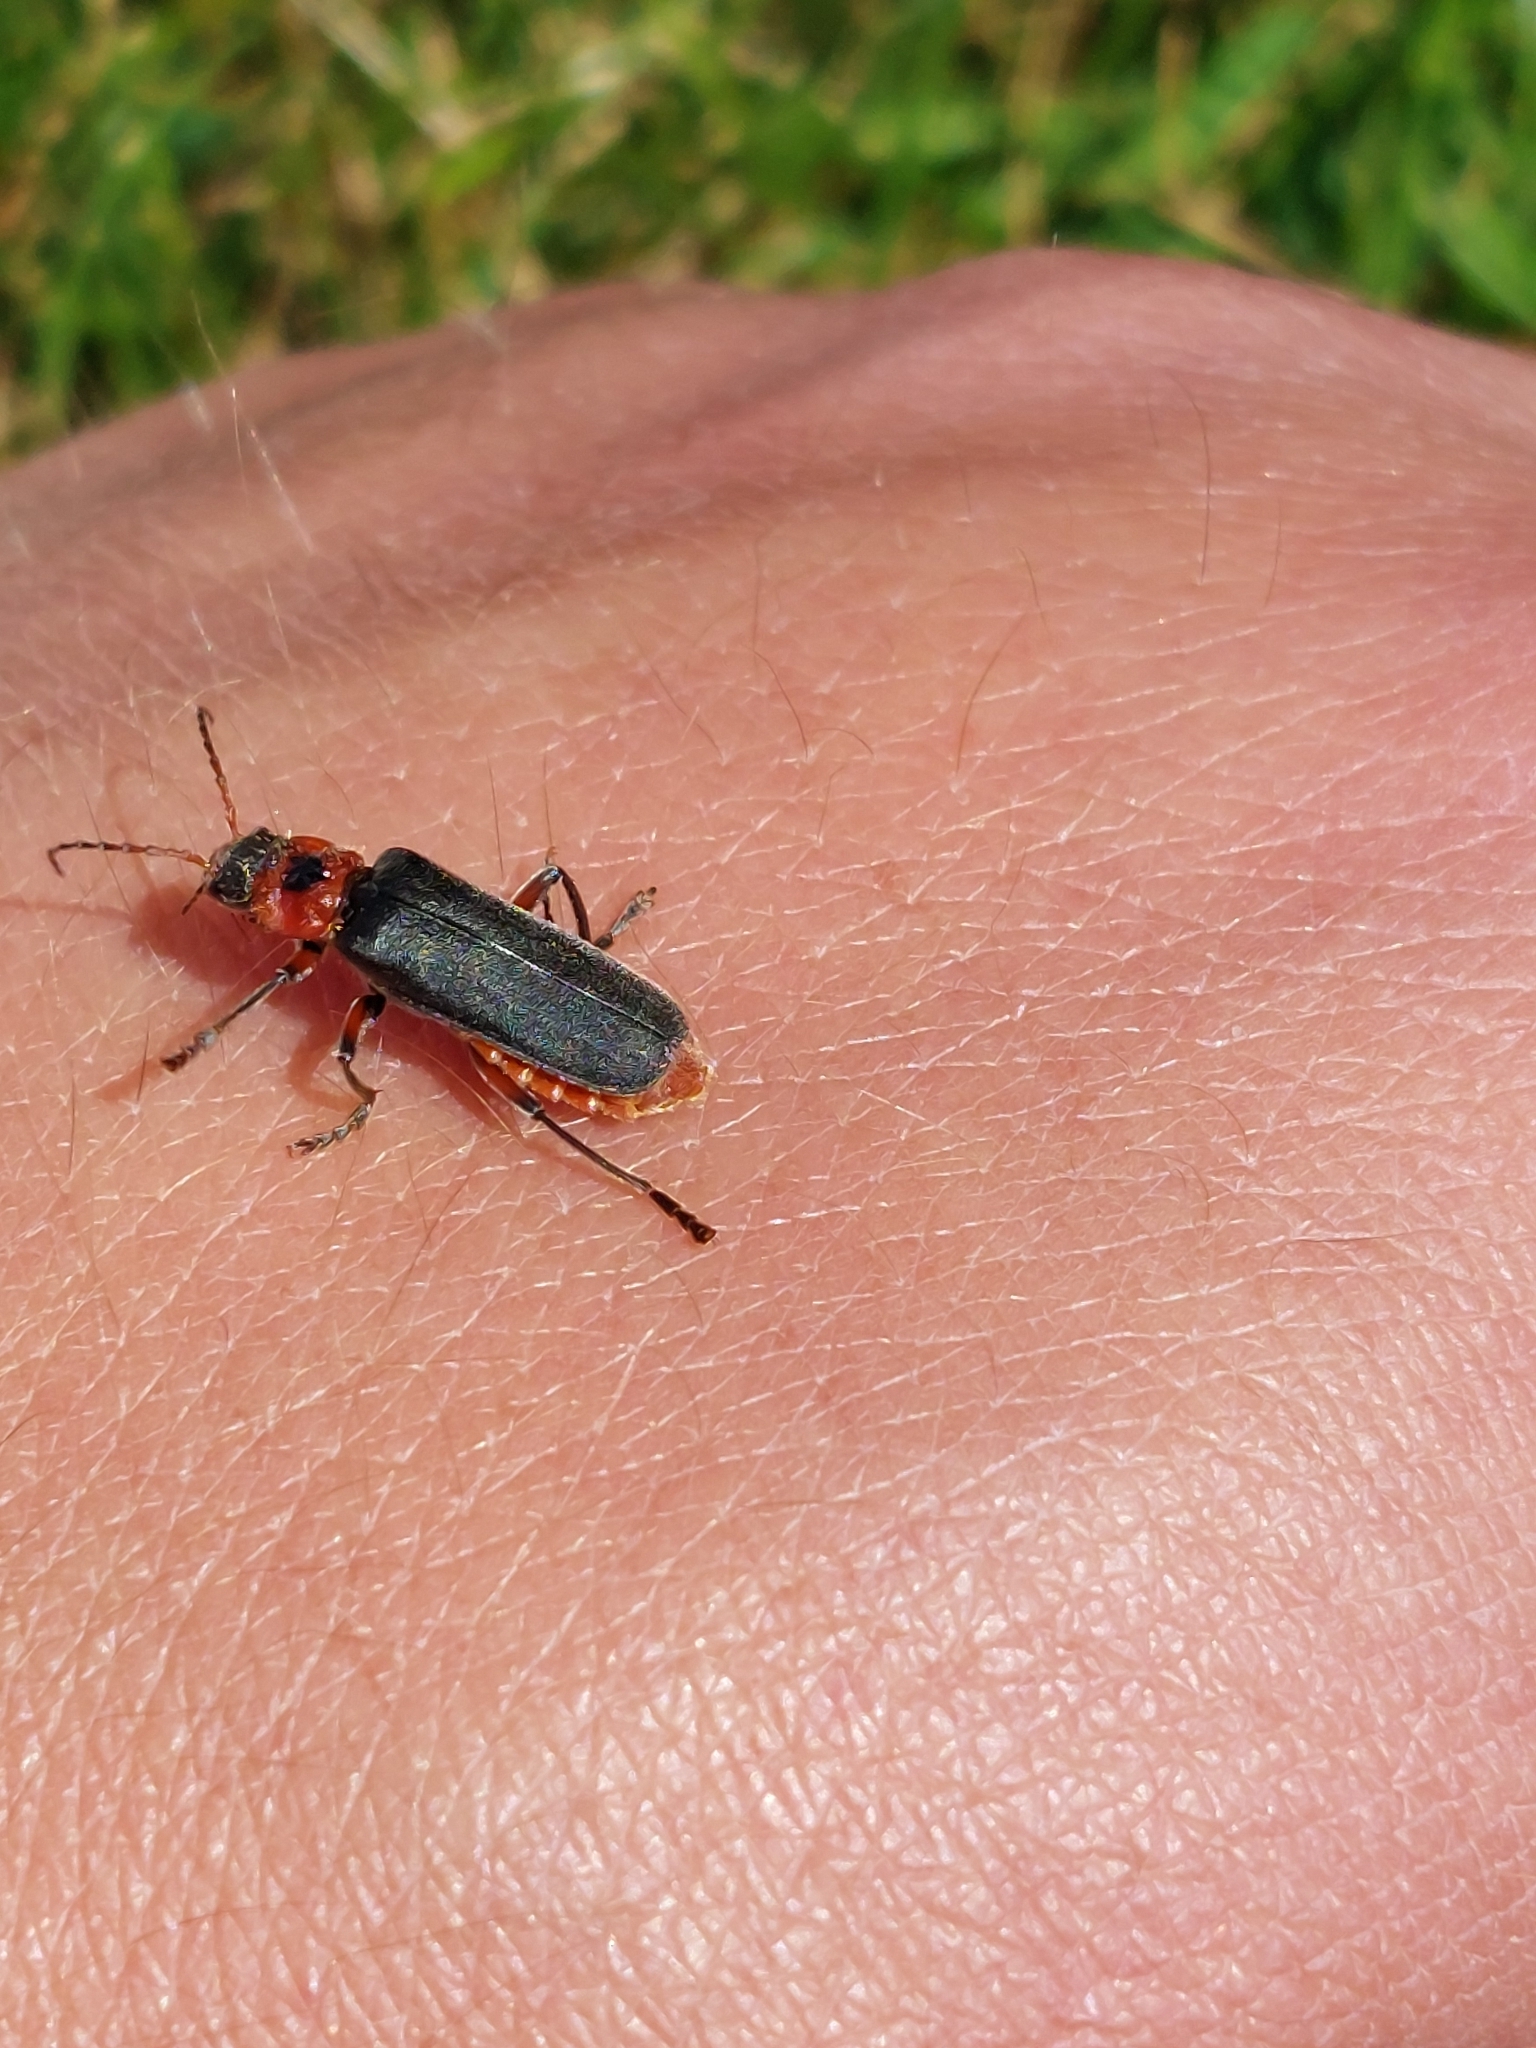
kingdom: Animalia
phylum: Arthropoda
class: Insecta
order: Coleoptera
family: Cantharidae
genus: Cantharis
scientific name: Cantharis rustica
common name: Soldier beetle
